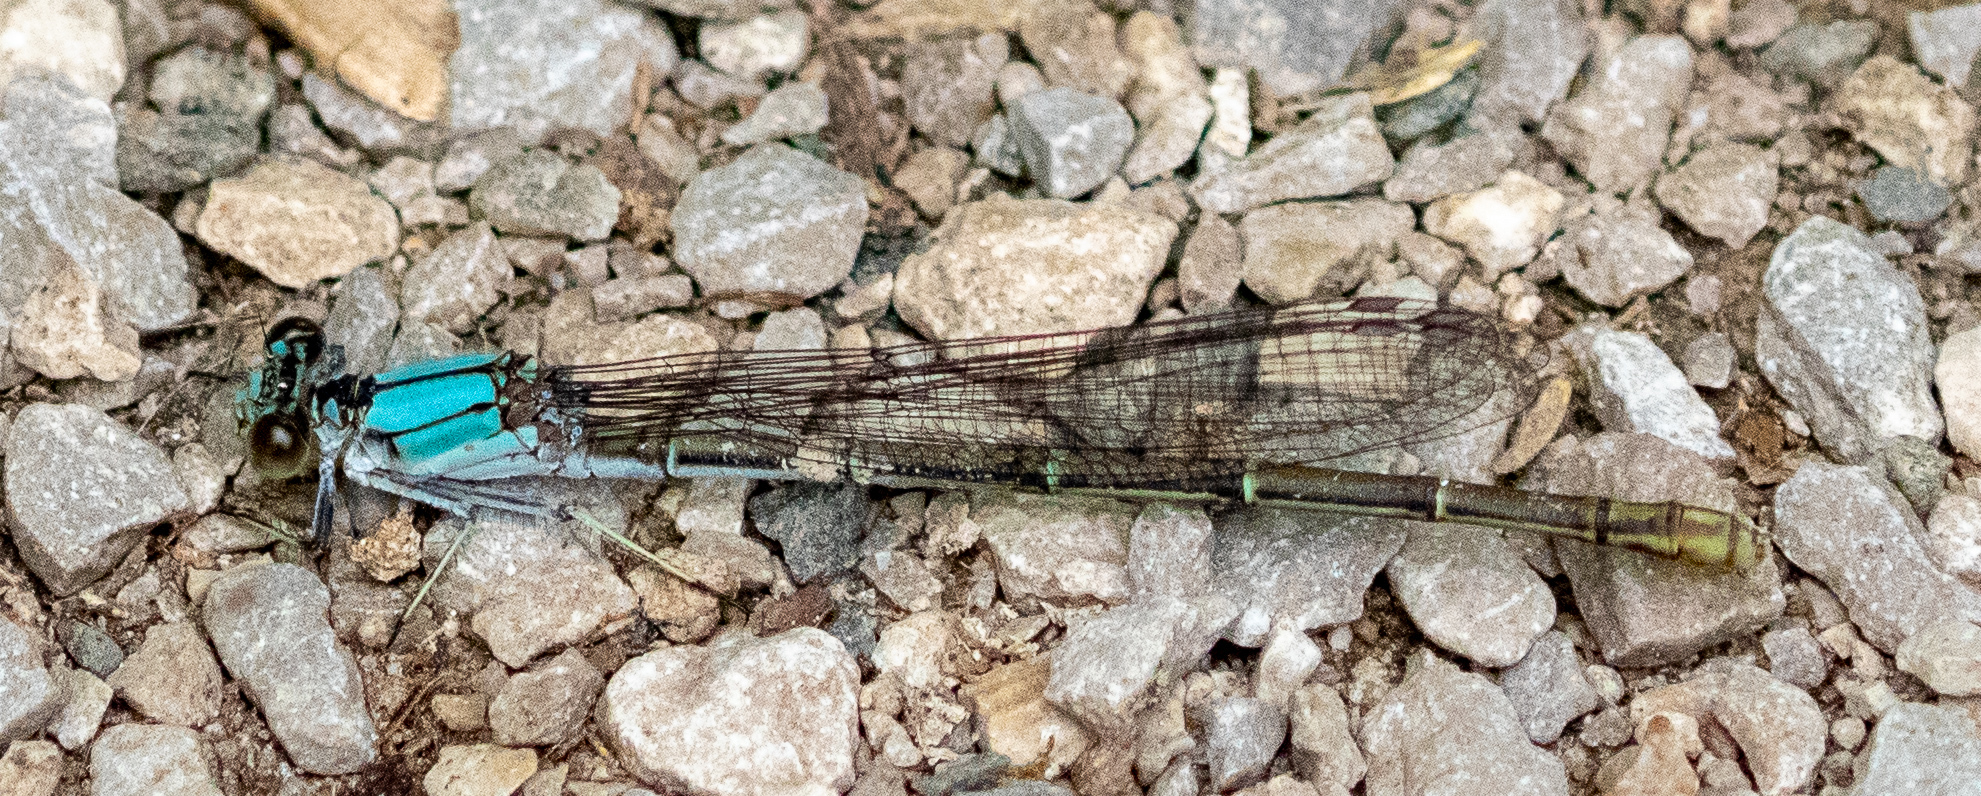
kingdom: Animalia
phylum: Arthropoda
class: Insecta
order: Odonata
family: Coenagrionidae
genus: Argia
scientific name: Argia moesta
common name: Powdered dancer
